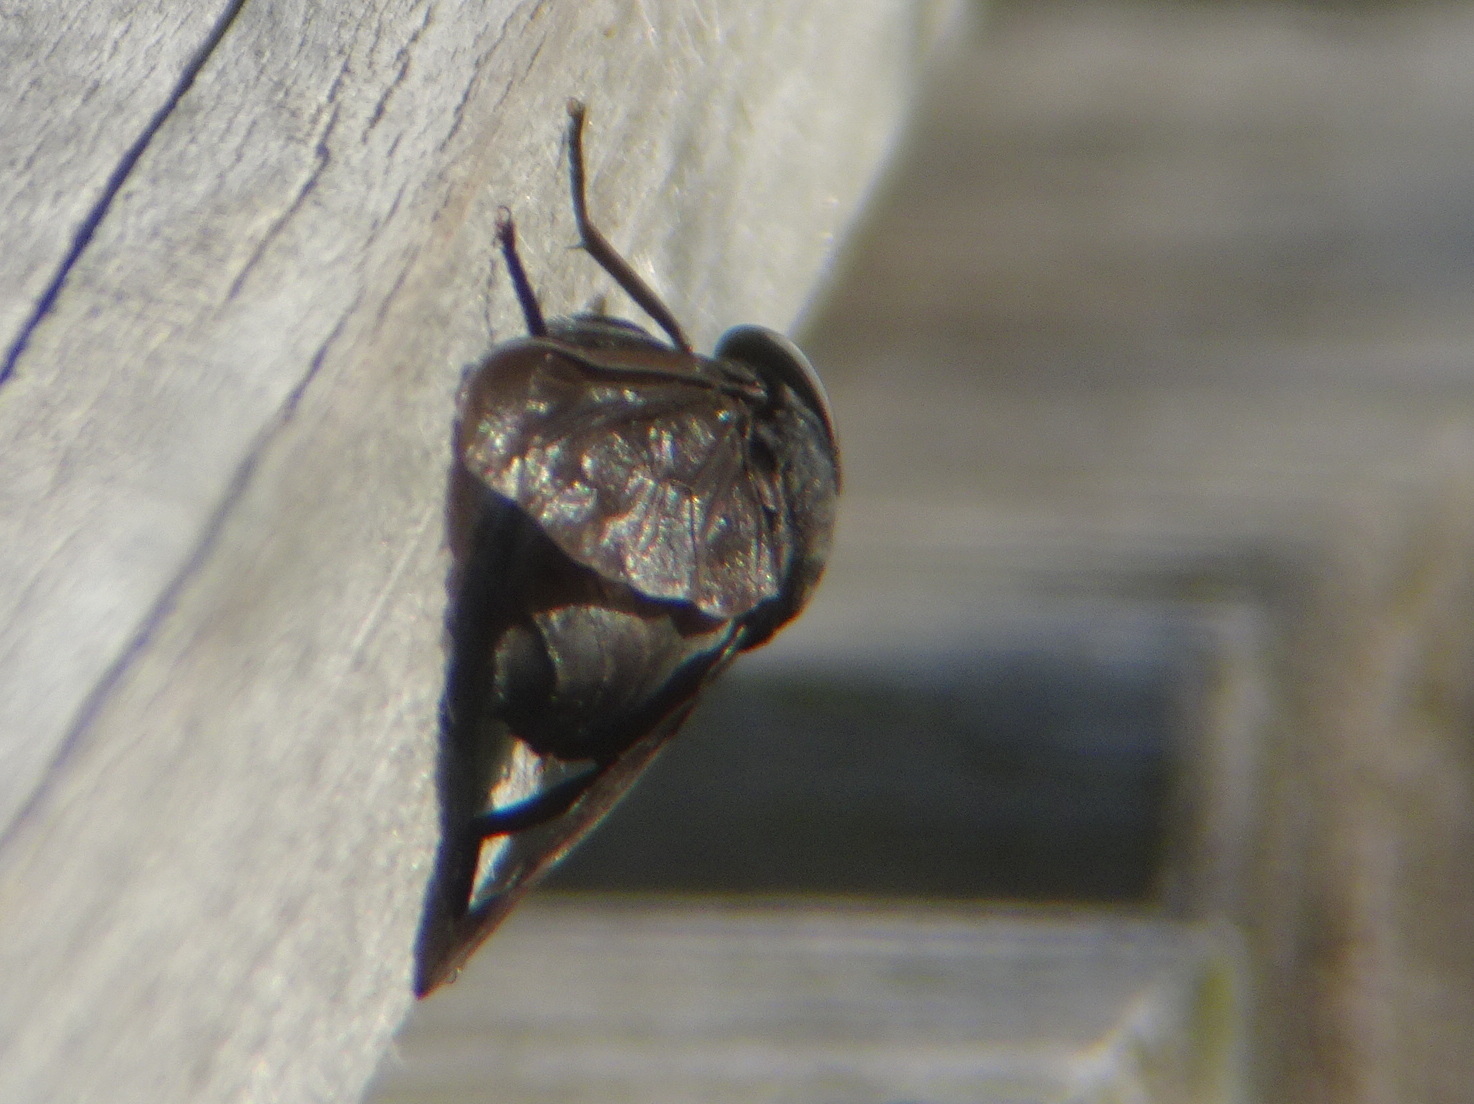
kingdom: Animalia
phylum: Arthropoda
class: Insecta
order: Diptera
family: Tabanidae
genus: Tabanus
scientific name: Tabanus atratus
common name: Black horse fly
